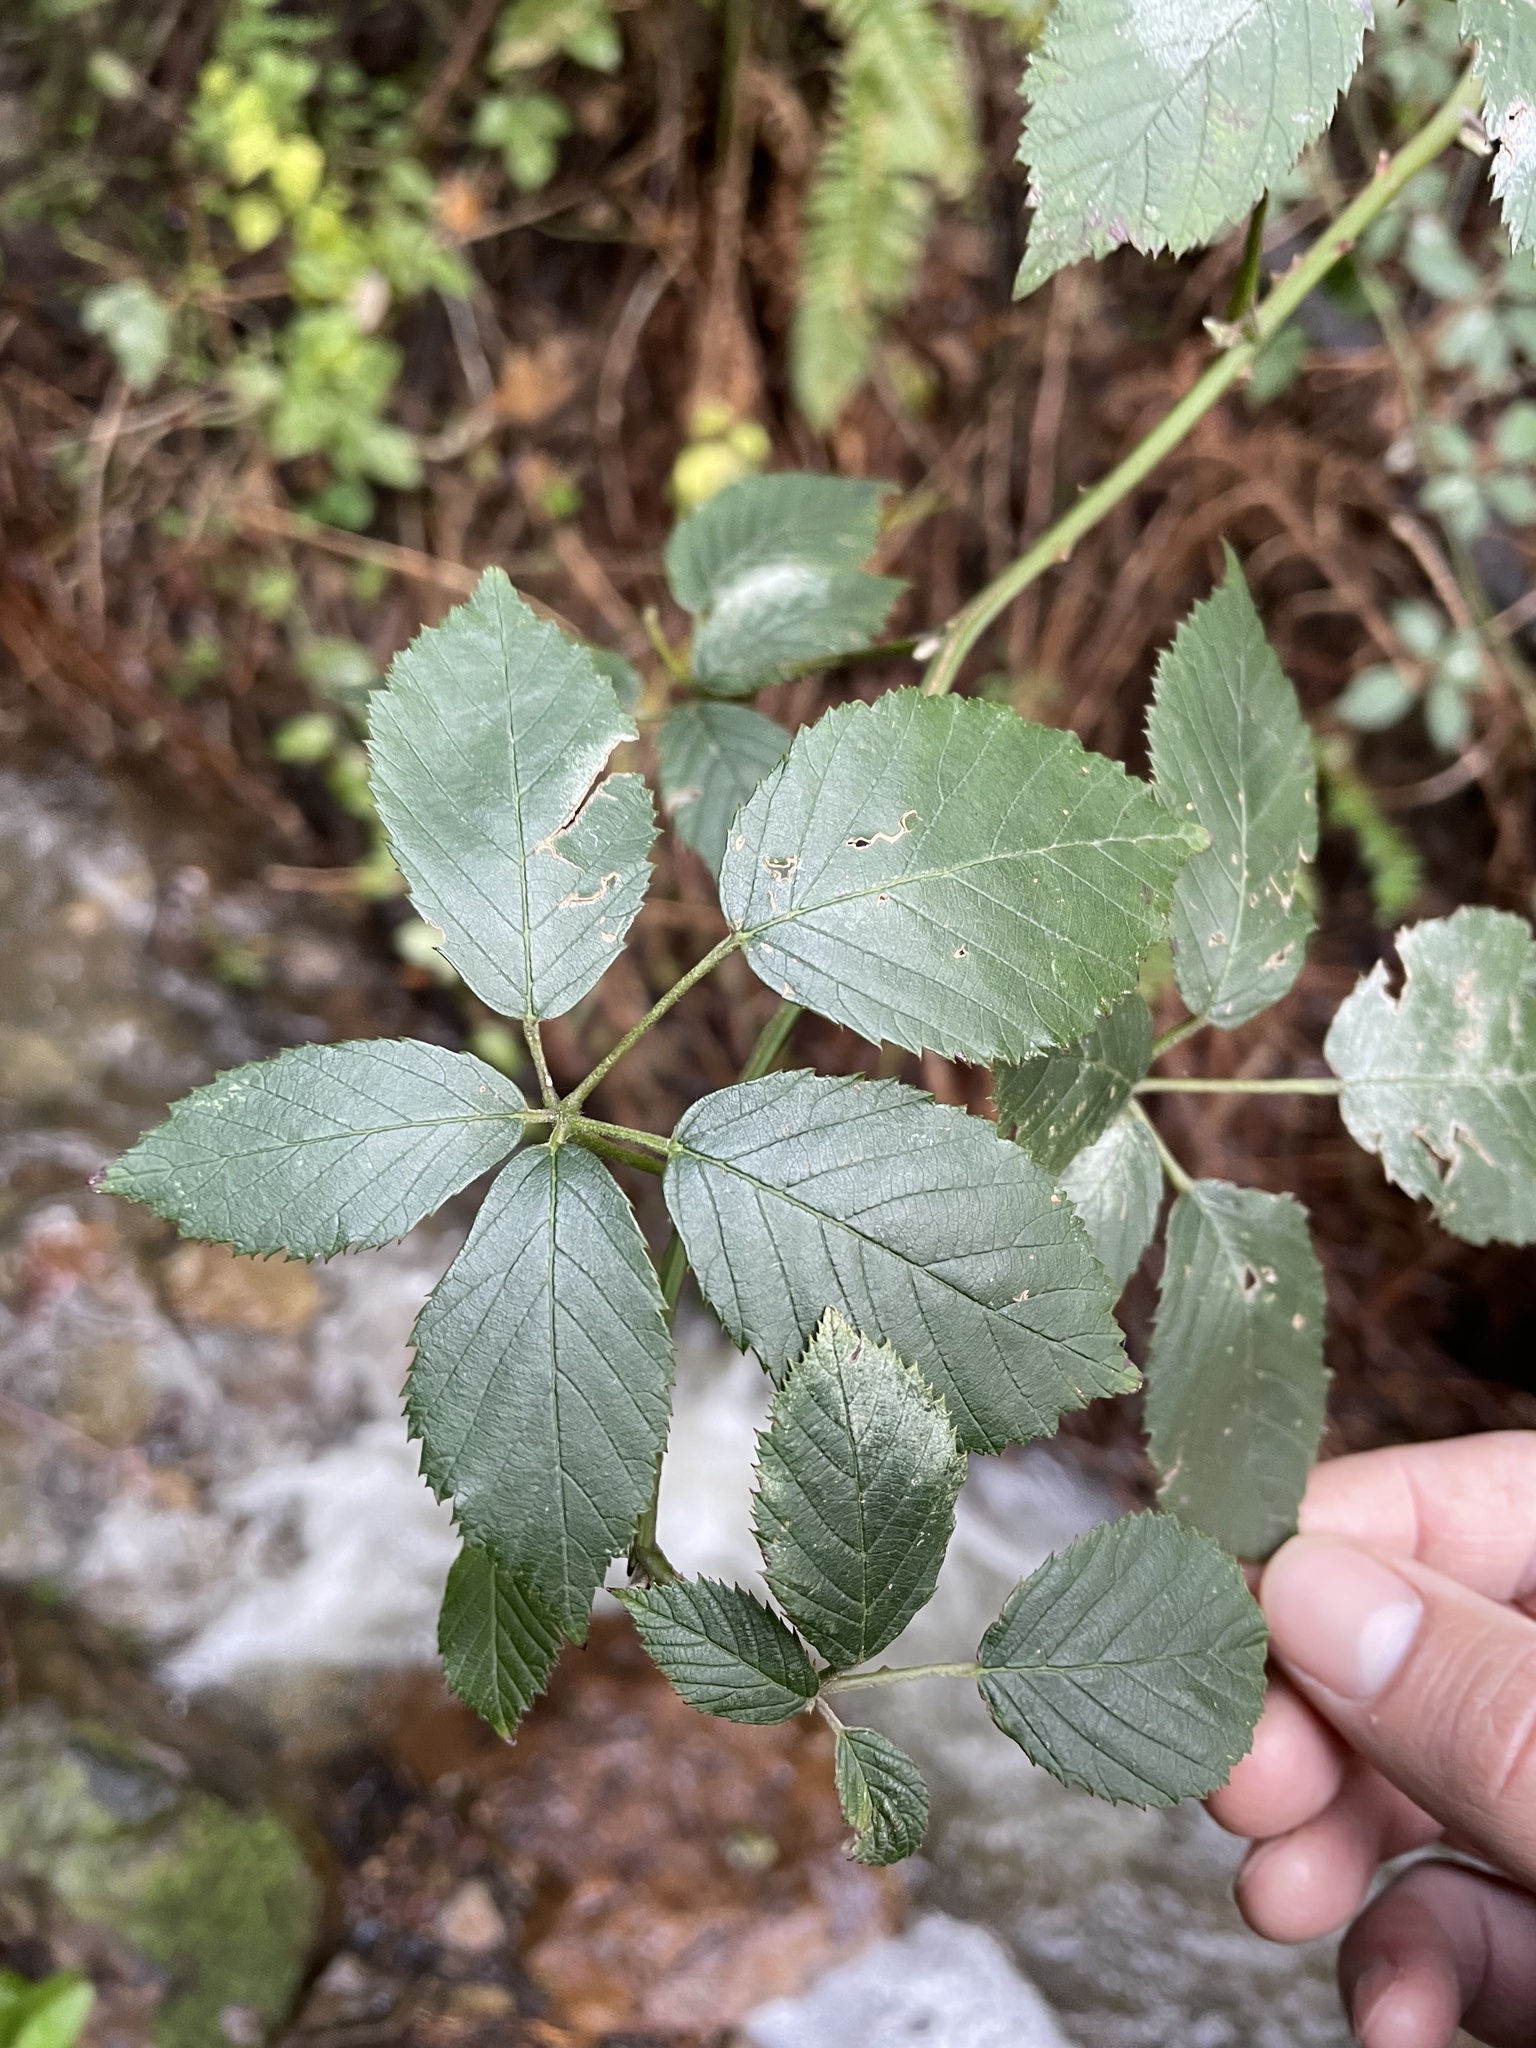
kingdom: Plantae
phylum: Tracheophyta
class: Magnoliopsida
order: Rosales
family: Rosaceae
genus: Rubus
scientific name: Rubus armeniacus
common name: Himalayan blackberry
